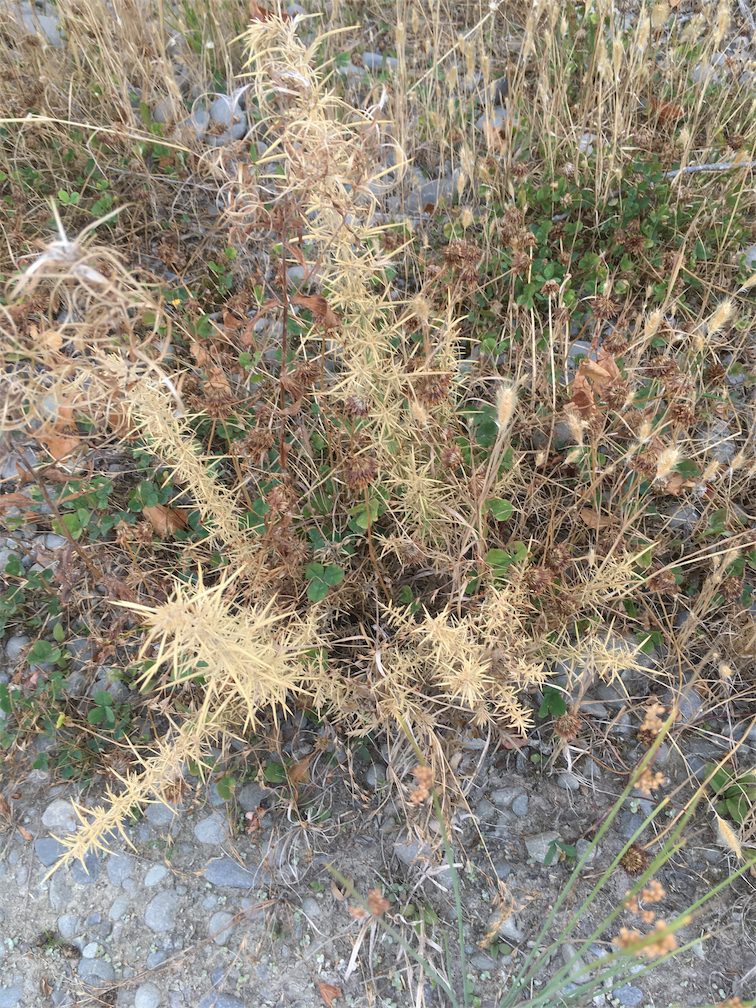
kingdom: Plantae
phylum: Tracheophyta
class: Magnoliopsida
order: Fabales
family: Fabaceae
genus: Ulex
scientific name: Ulex europaeus
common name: Common gorse
